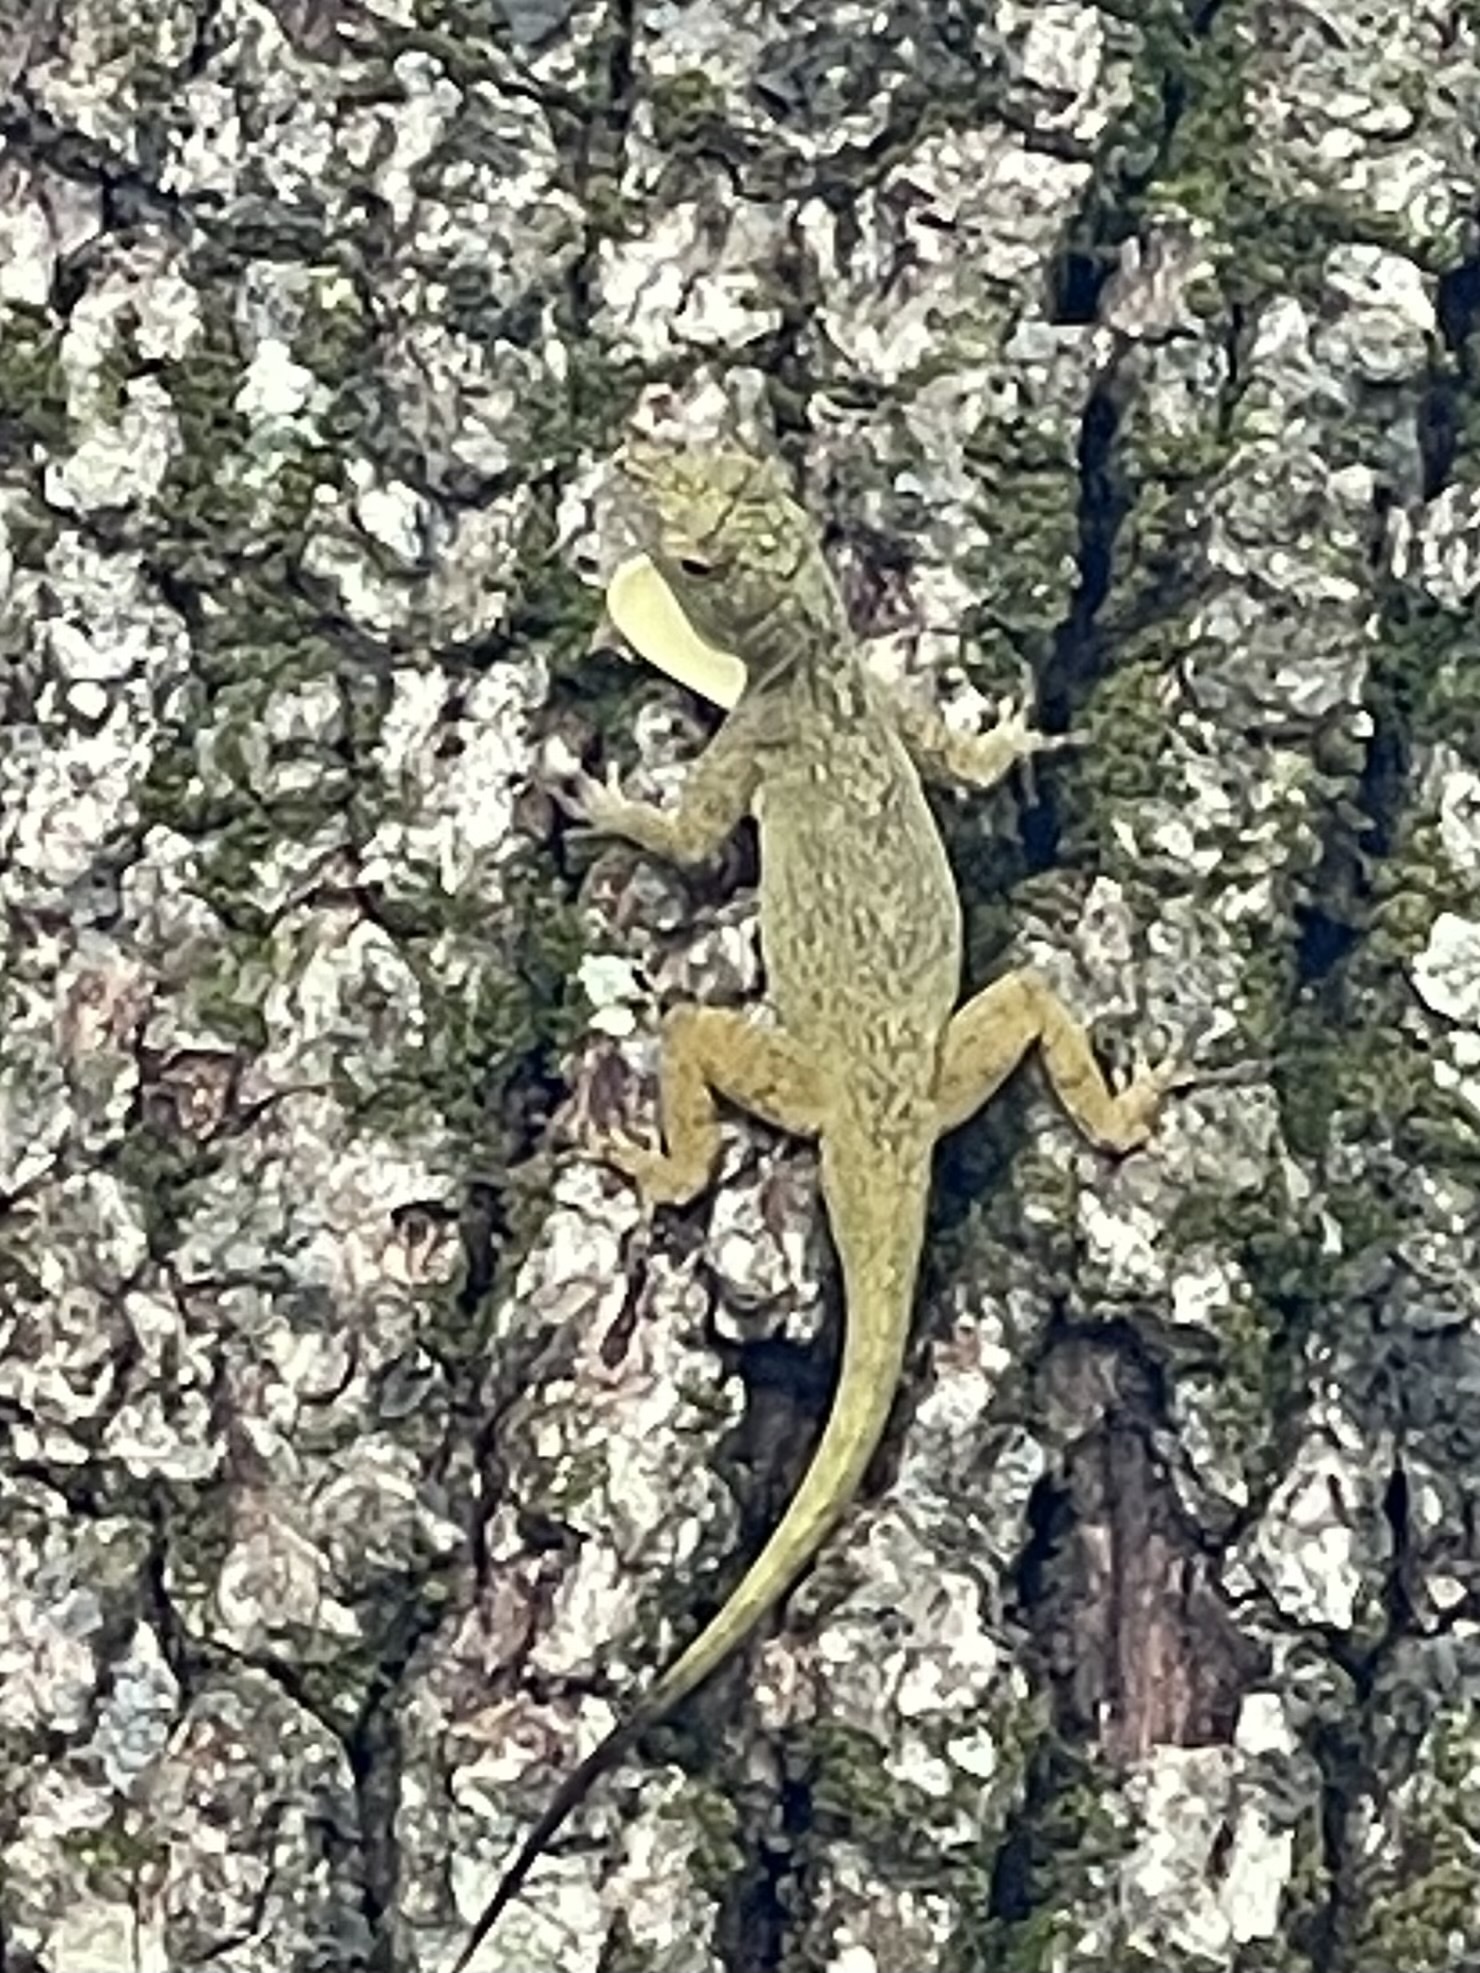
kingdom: Animalia
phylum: Chordata
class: Squamata
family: Dactyloidae
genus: Anolis
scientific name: Anolis distichus
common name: Bark anole
